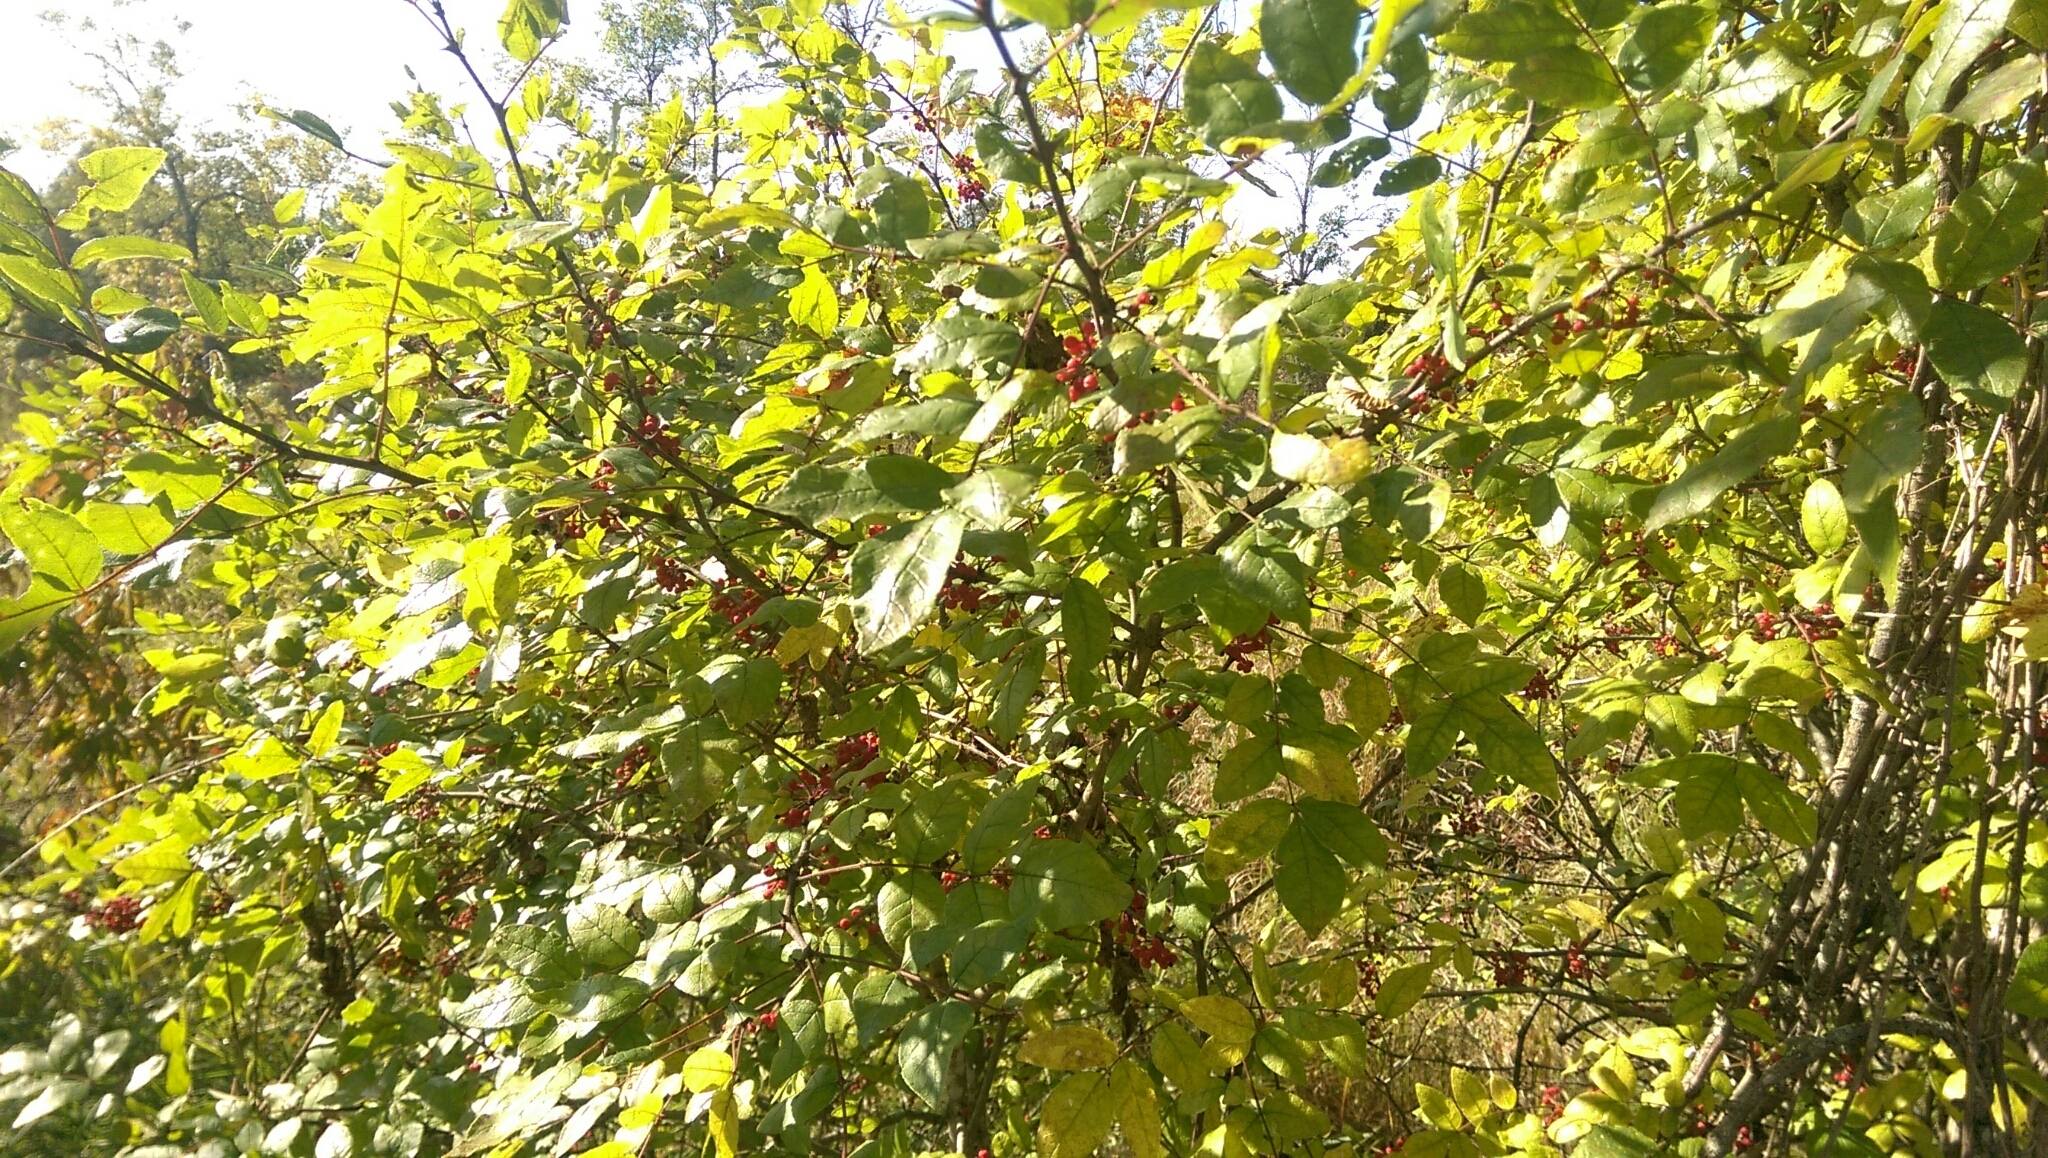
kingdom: Plantae
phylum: Tracheophyta
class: Magnoliopsida
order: Sapindales
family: Rutaceae
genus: Zanthoxylum
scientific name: Zanthoxylum americanum
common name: Northern prickly-ash
